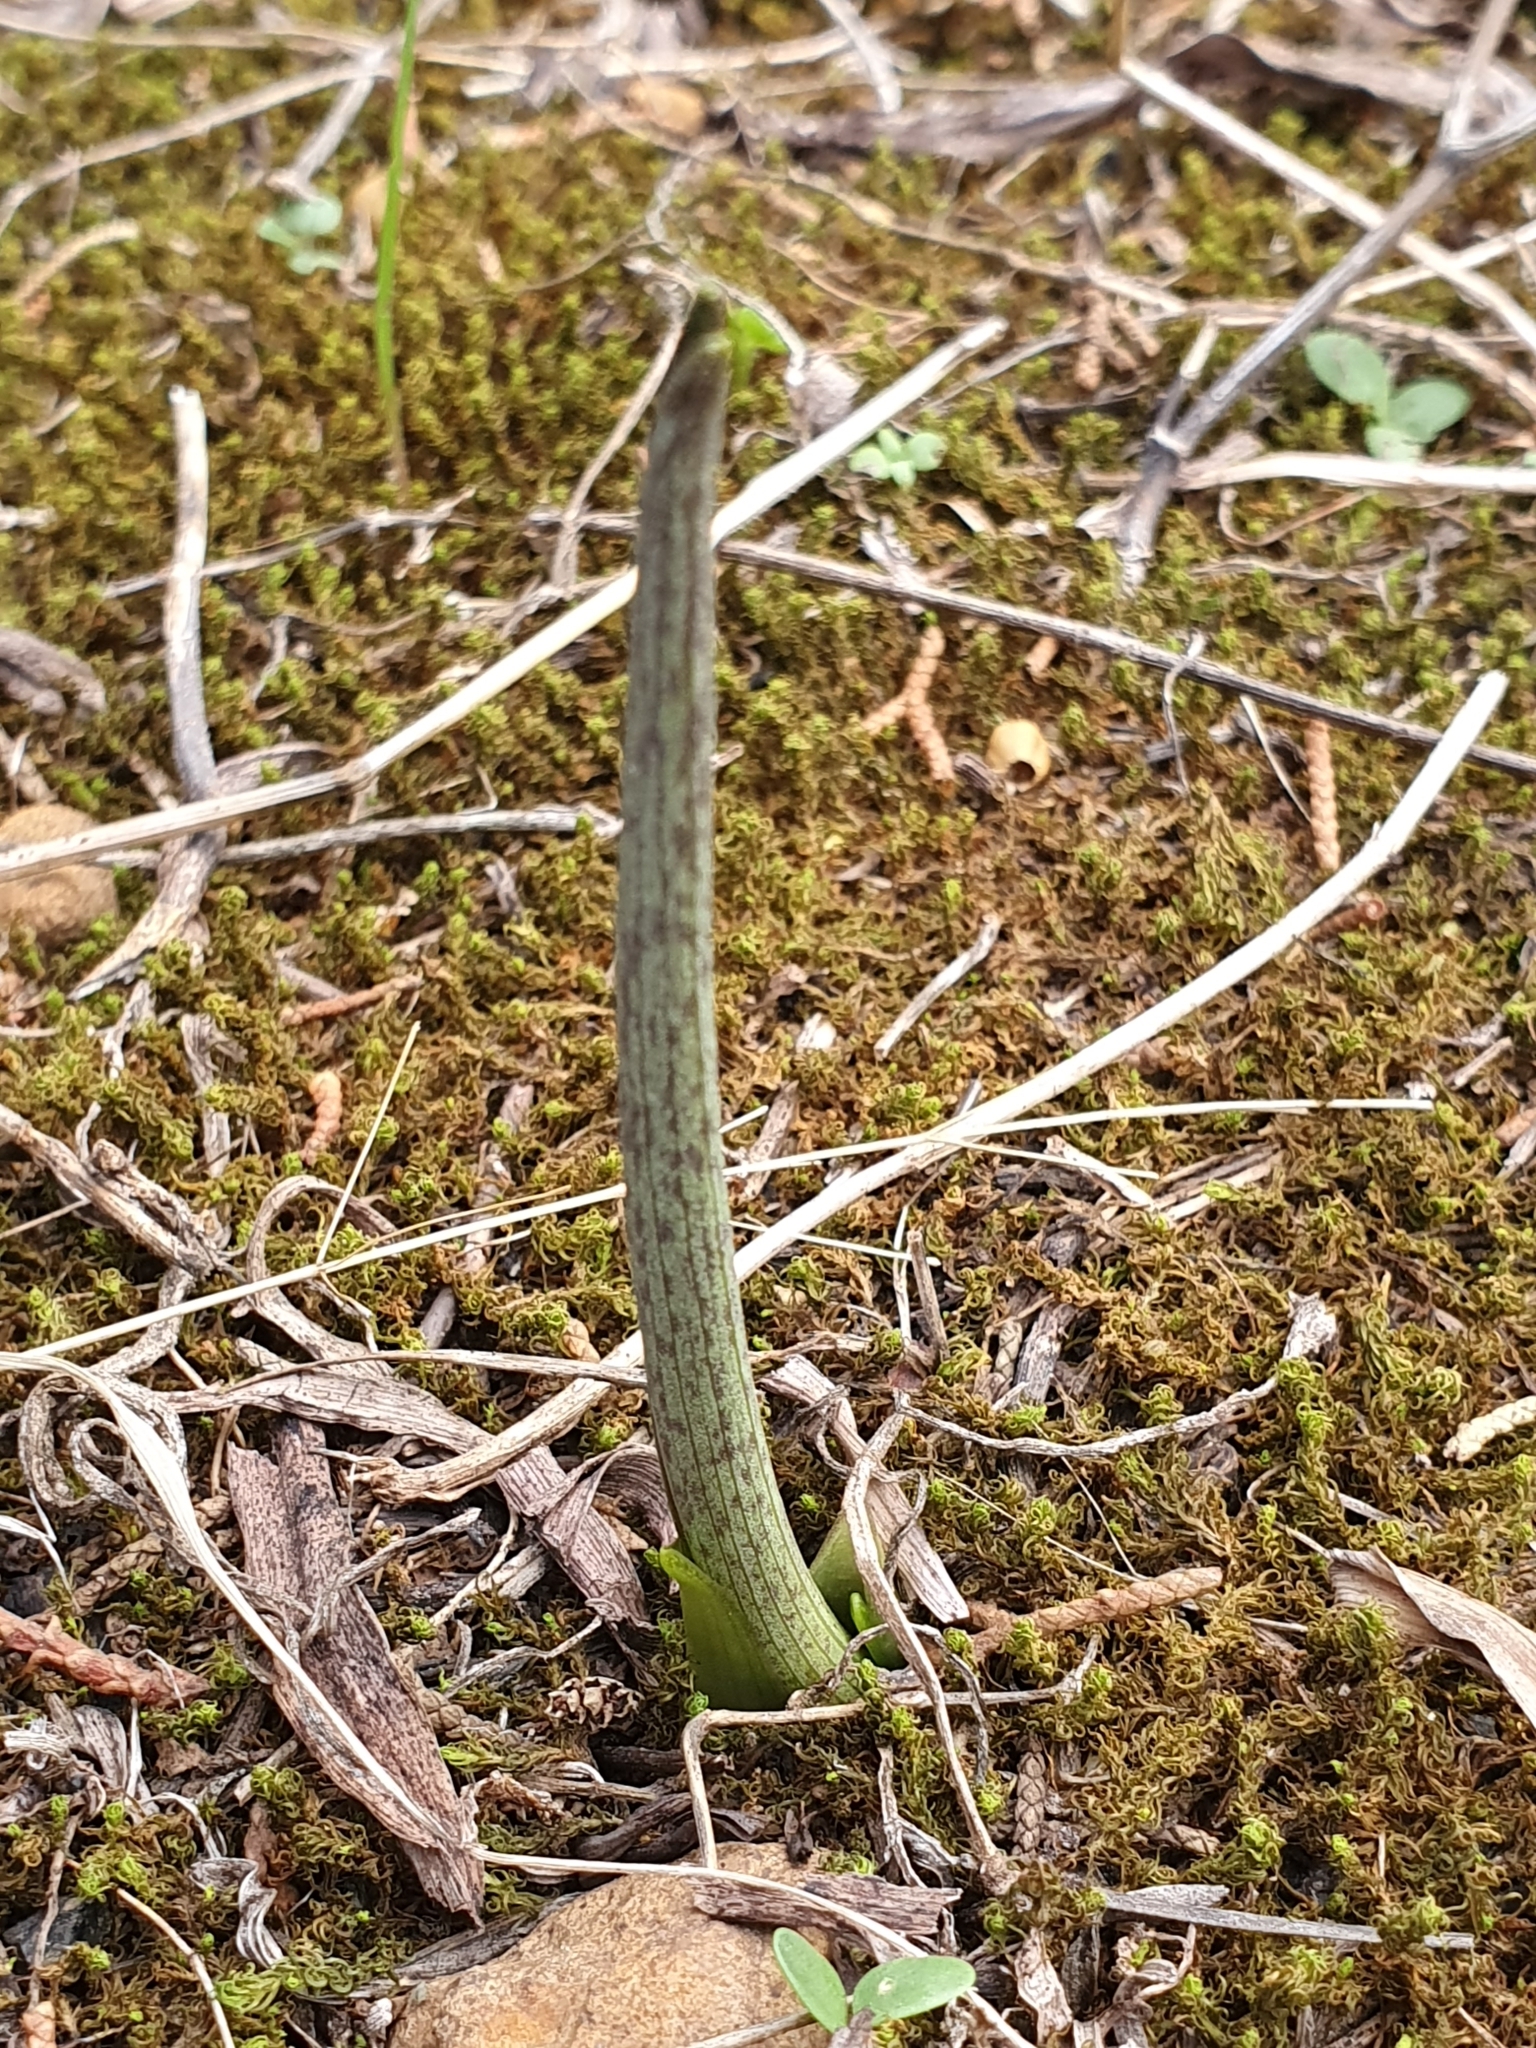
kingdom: Plantae
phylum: Tracheophyta
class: Liliopsida
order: Alismatales
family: Araceae
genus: Biarum
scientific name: Biarum dispar
